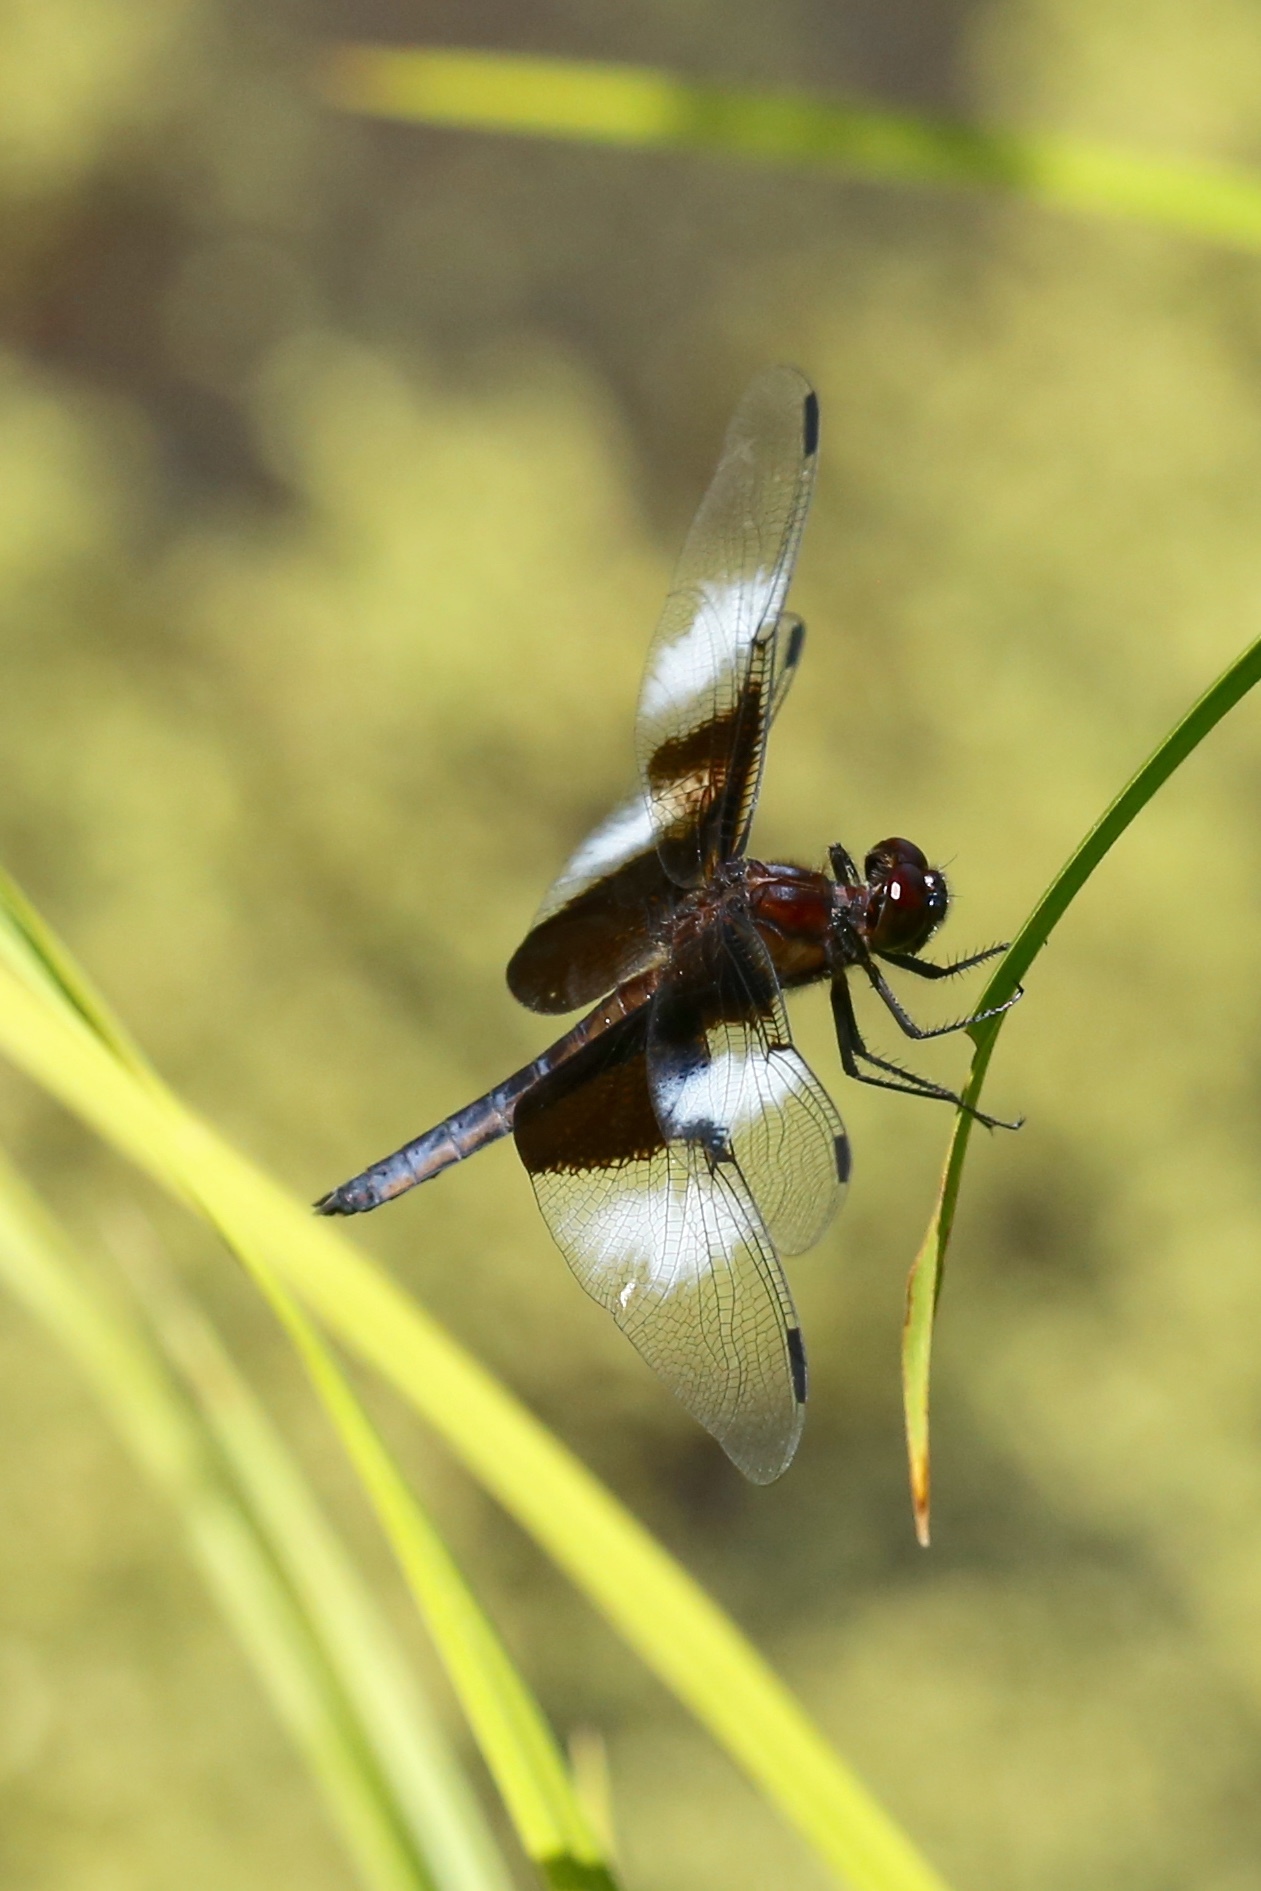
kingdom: Animalia
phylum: Arthropoda
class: Insecta
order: Odonata
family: Libellulidae
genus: Libellula
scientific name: Libellula luctuosa
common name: Widow skimmer
